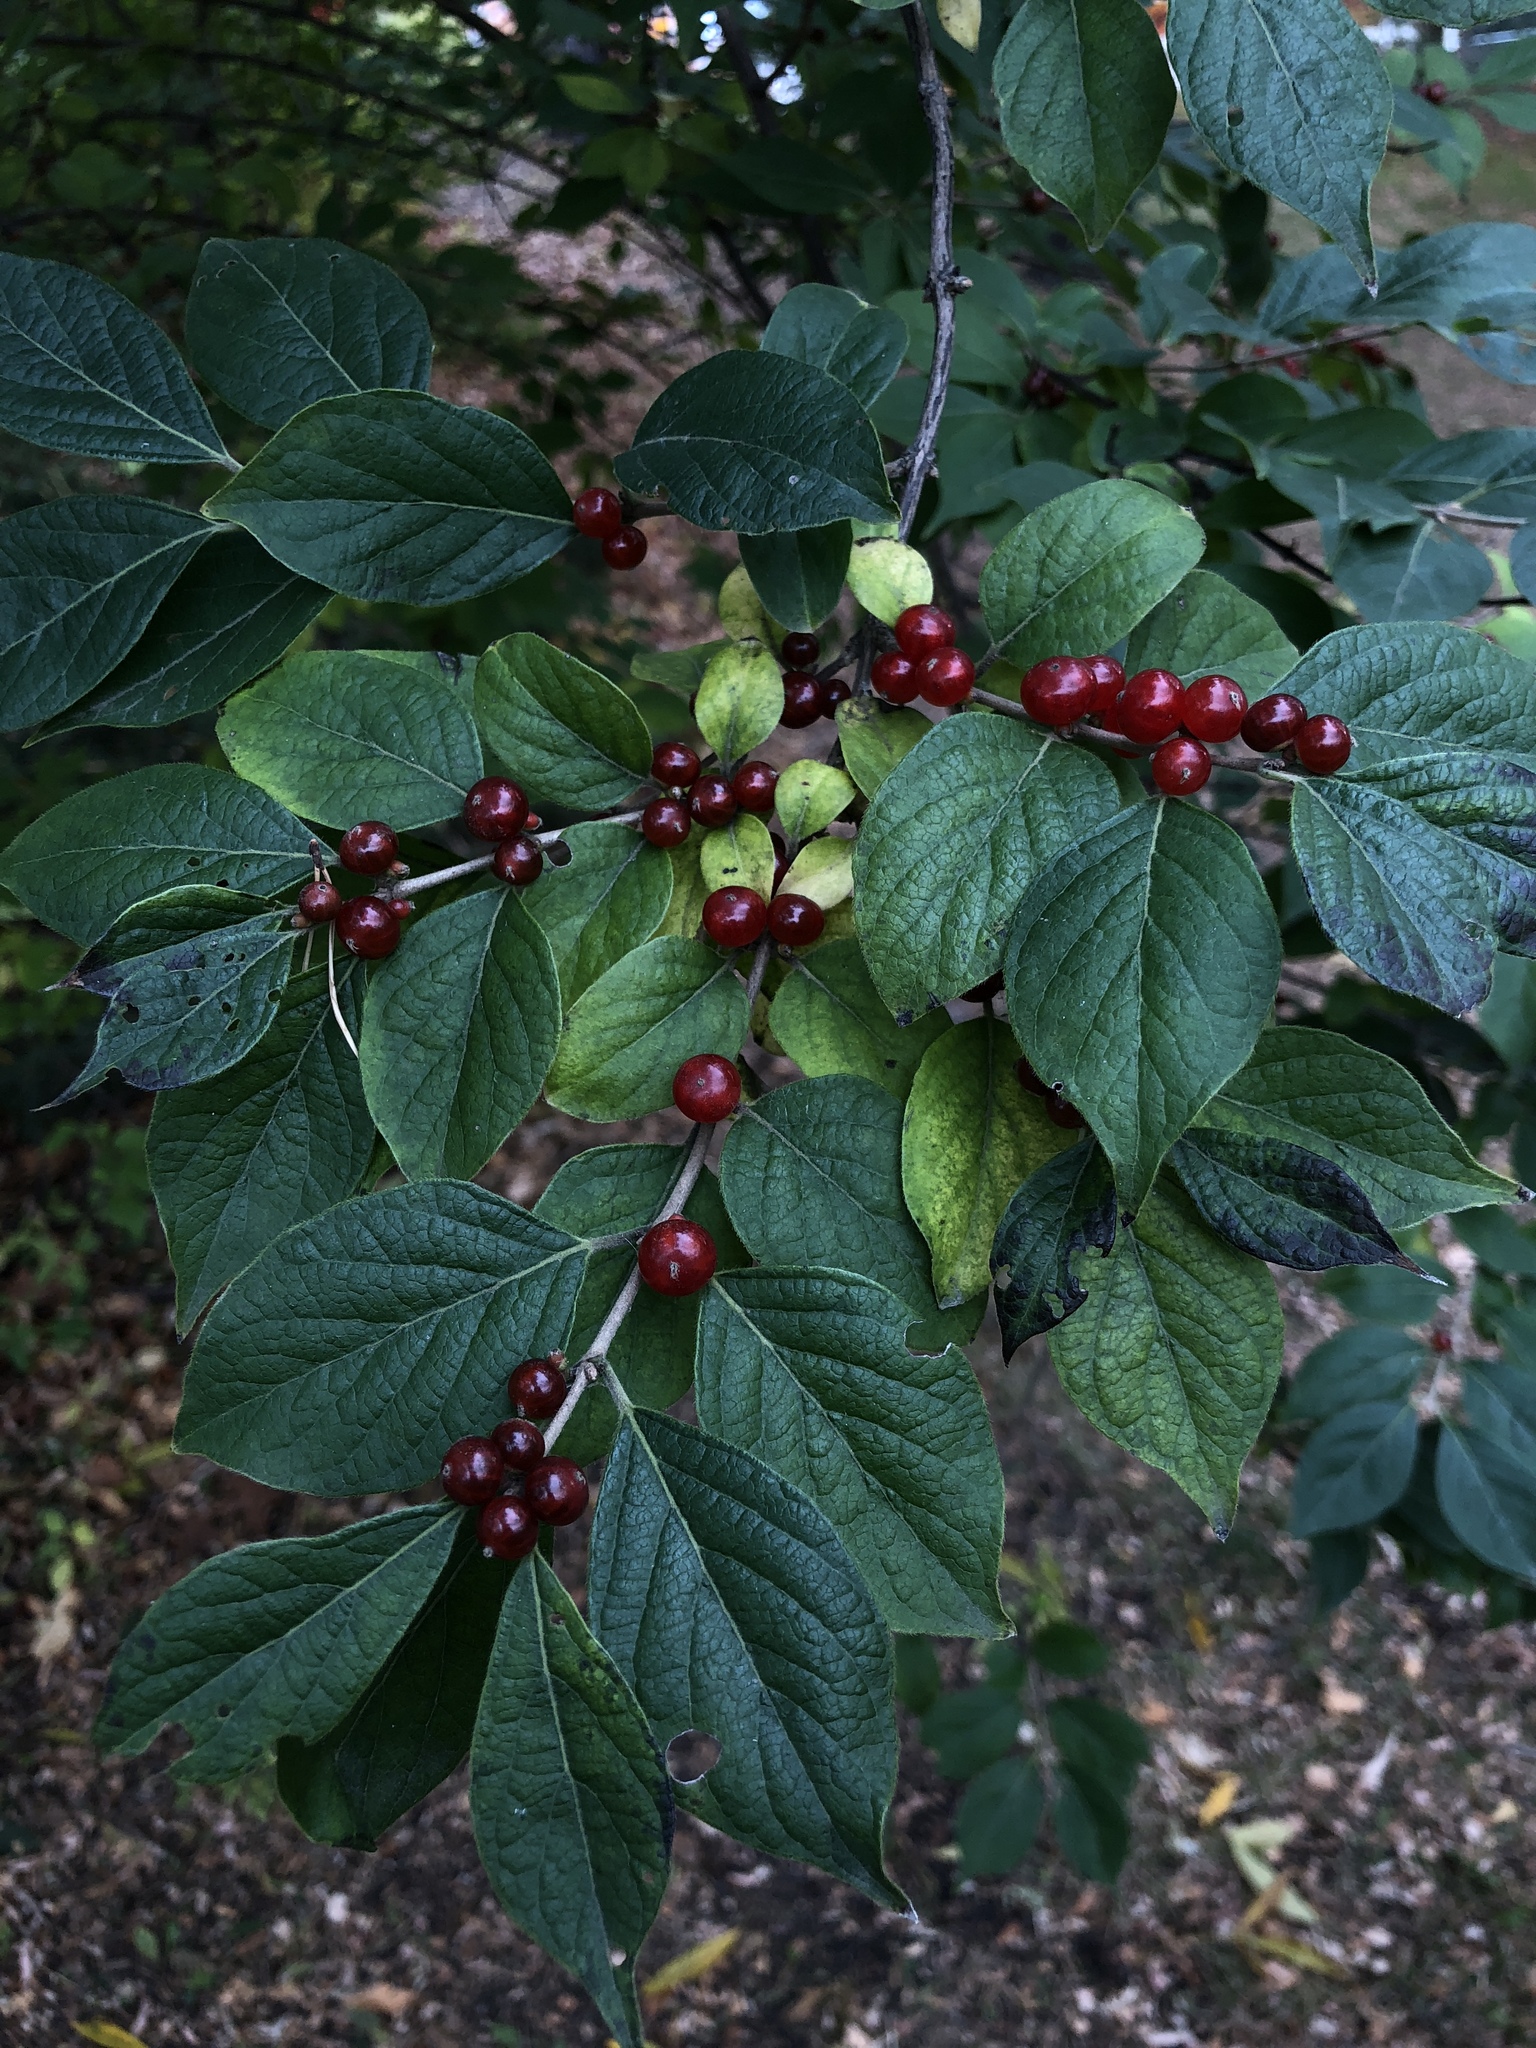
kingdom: Plantae
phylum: Tracheophyta
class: Magnoliopsida
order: Dipsacales
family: Caprifoliaceae
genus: Lonicera
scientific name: Lonicera maackii
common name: Amur honeysuckle
